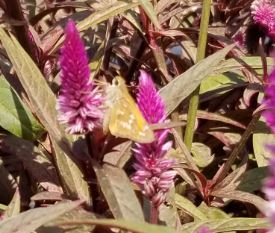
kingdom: Animalia
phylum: Arthropoda
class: Insecta
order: Lepidoptera
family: Hesperiidae
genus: Atalopedes
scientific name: Atalopedes
